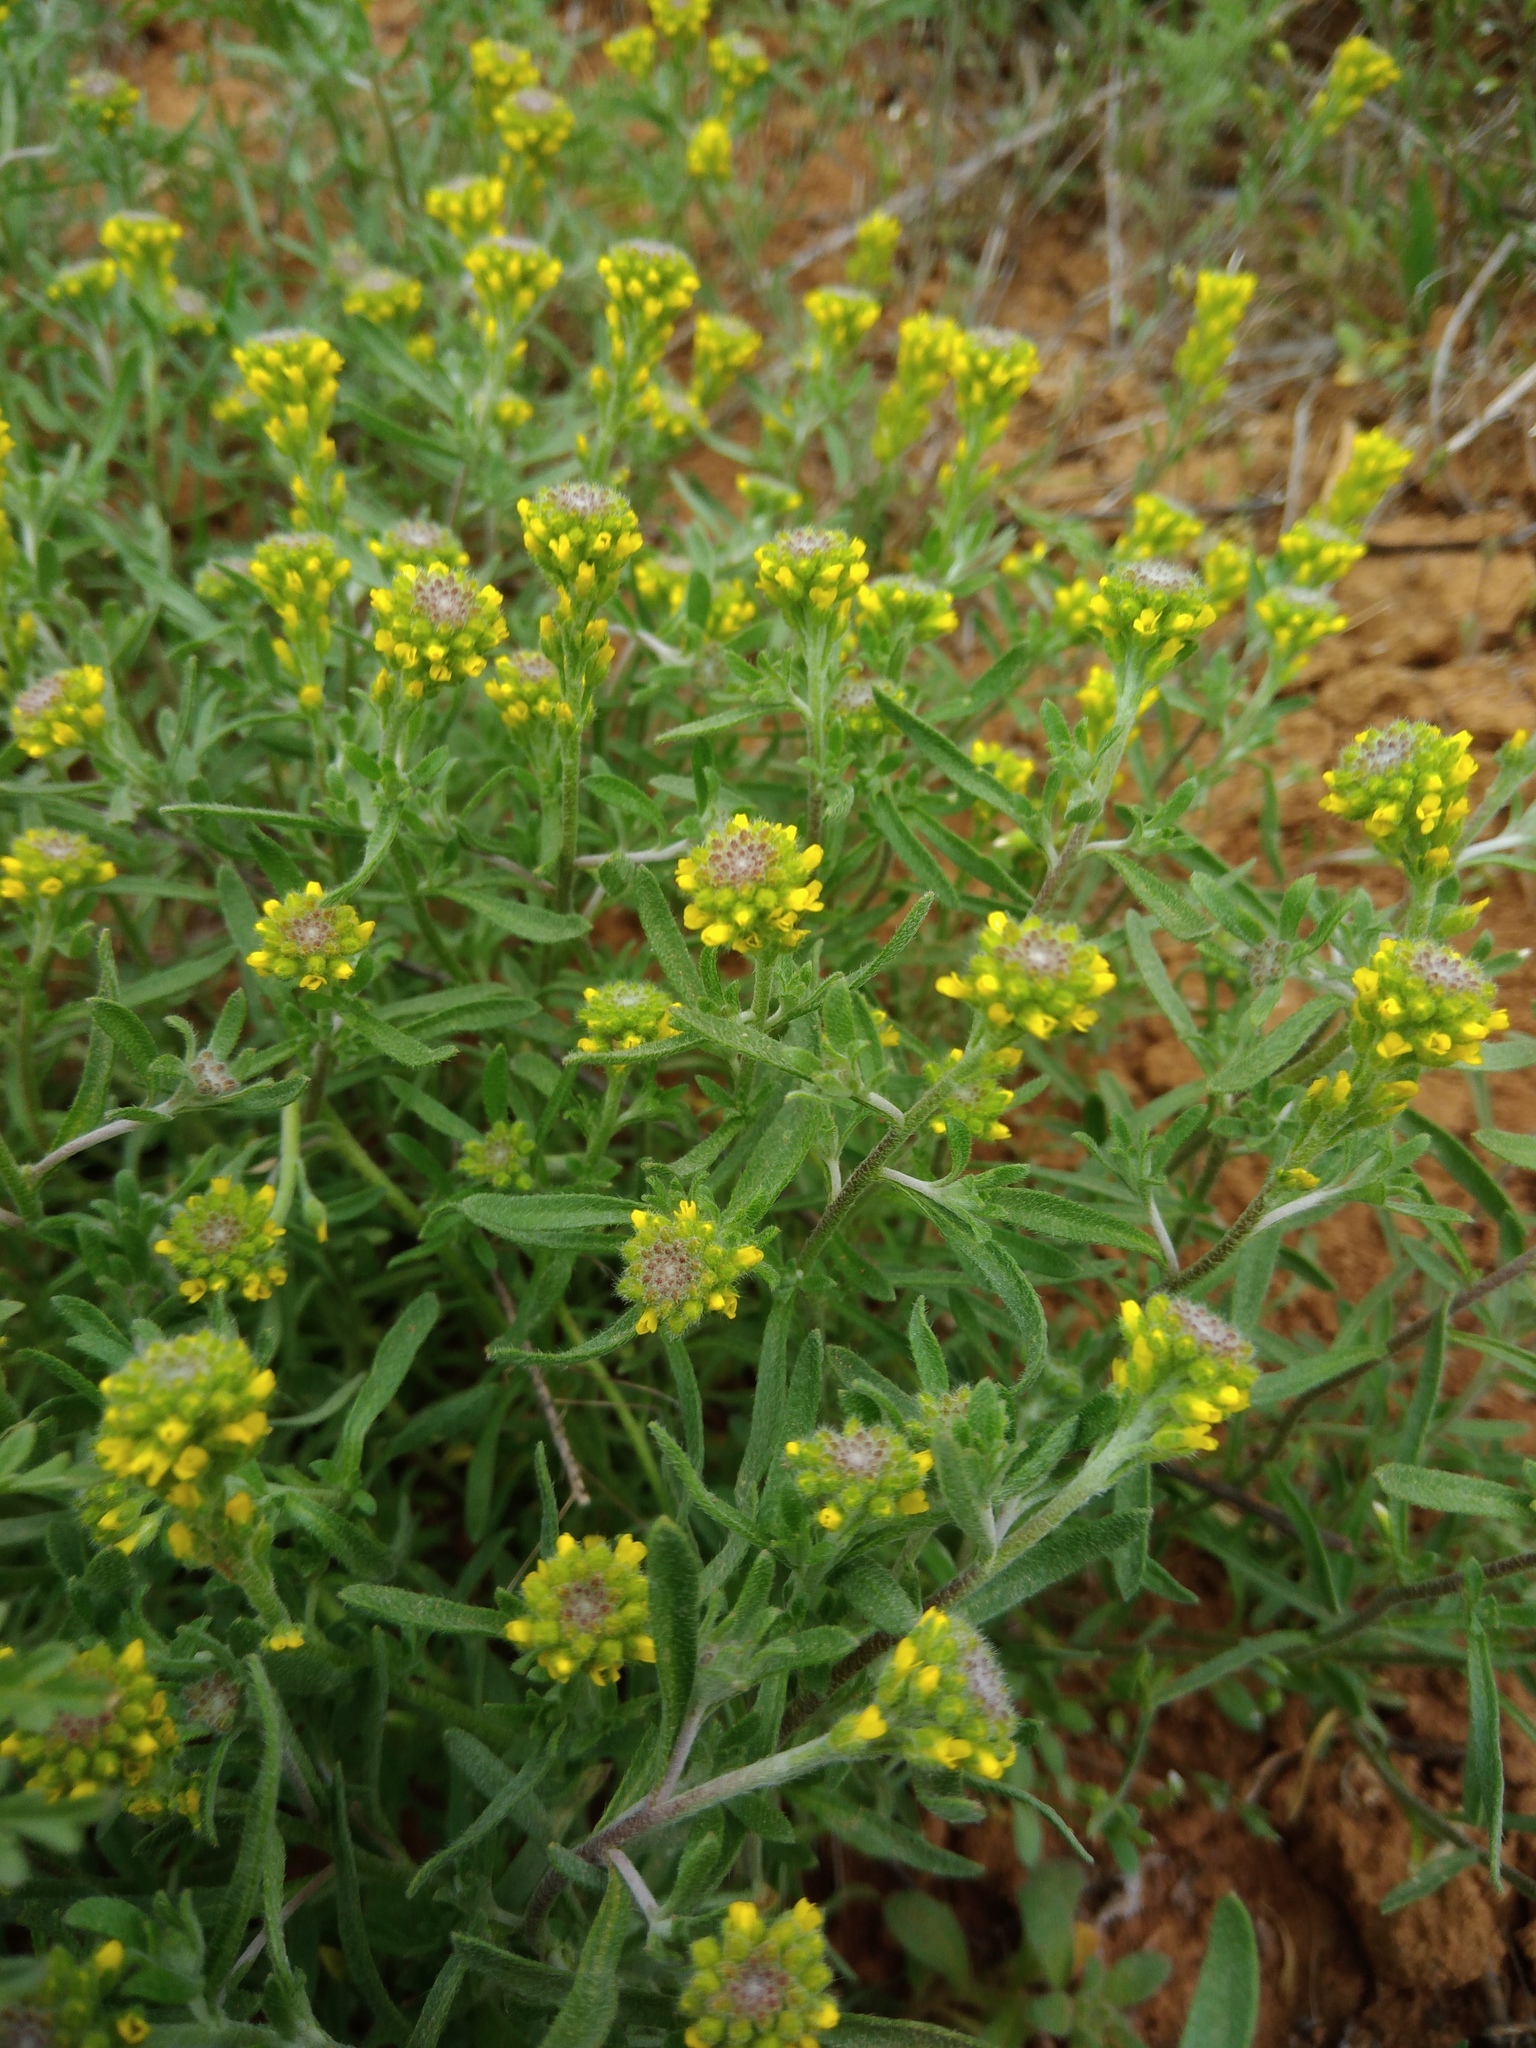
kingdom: Plantae
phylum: Tracheophyta
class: Magnoliopsida
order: Brassicales
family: Brassicaceae
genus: Alyssum
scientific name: Alyssum turkestanicum
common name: Desert alyssum
